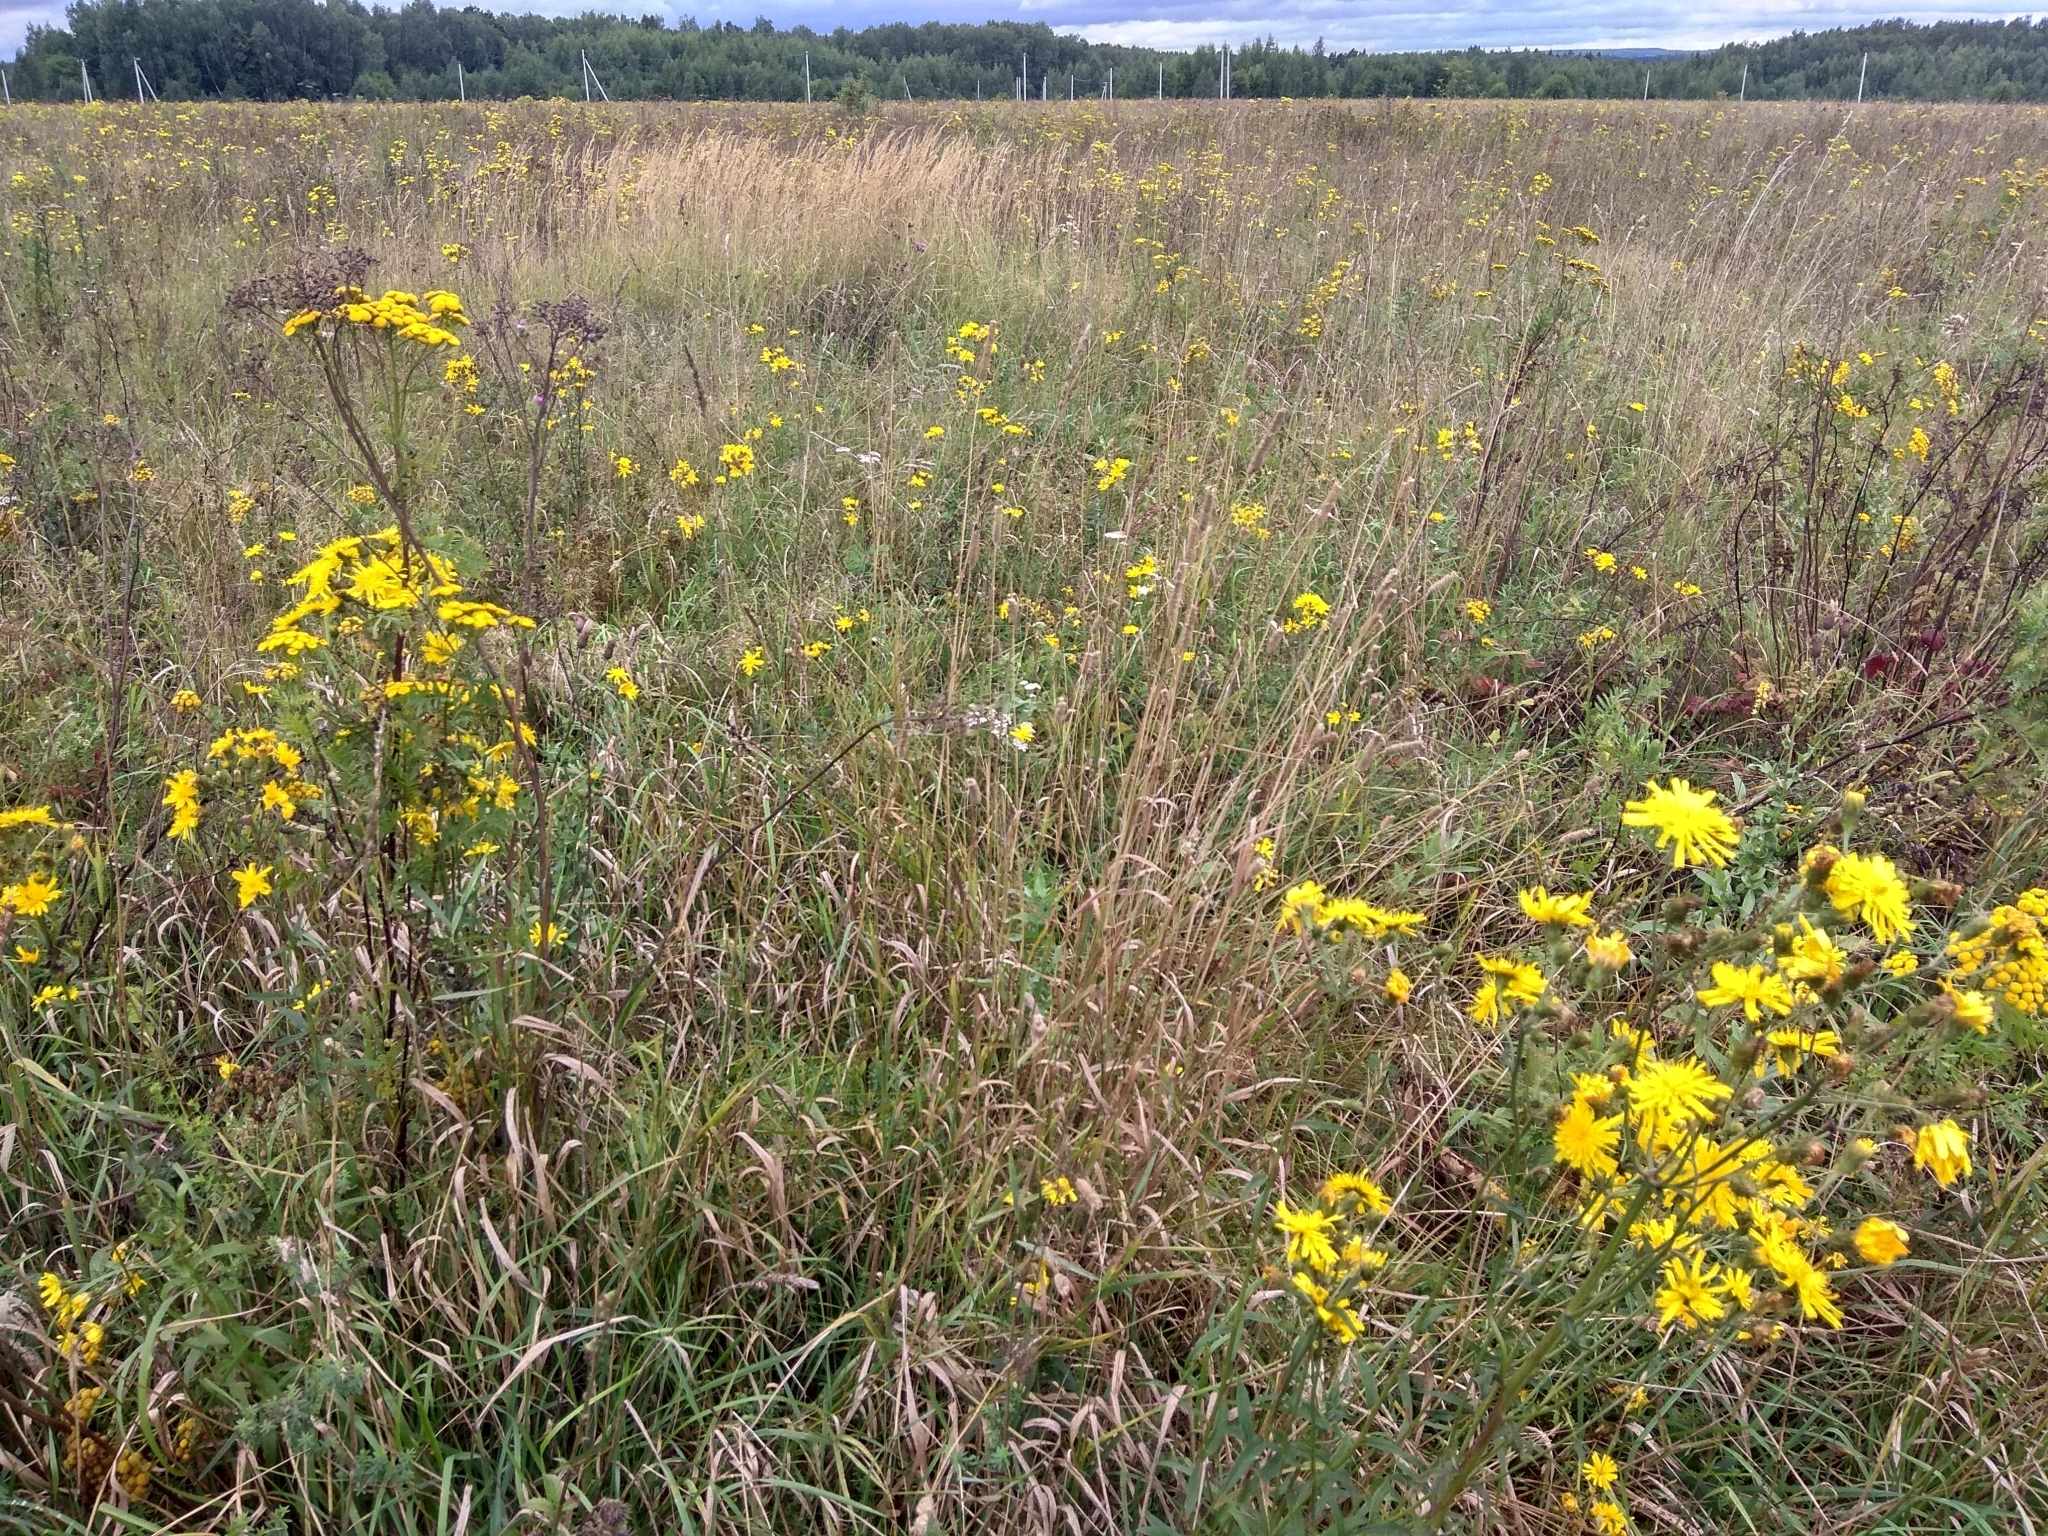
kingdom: Plantae
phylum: Tracheophyta
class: Magnoliopsida
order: Asterales
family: Asteraceae
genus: Hieracium
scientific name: Hieracium umbellatum
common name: Northern hawkweed
